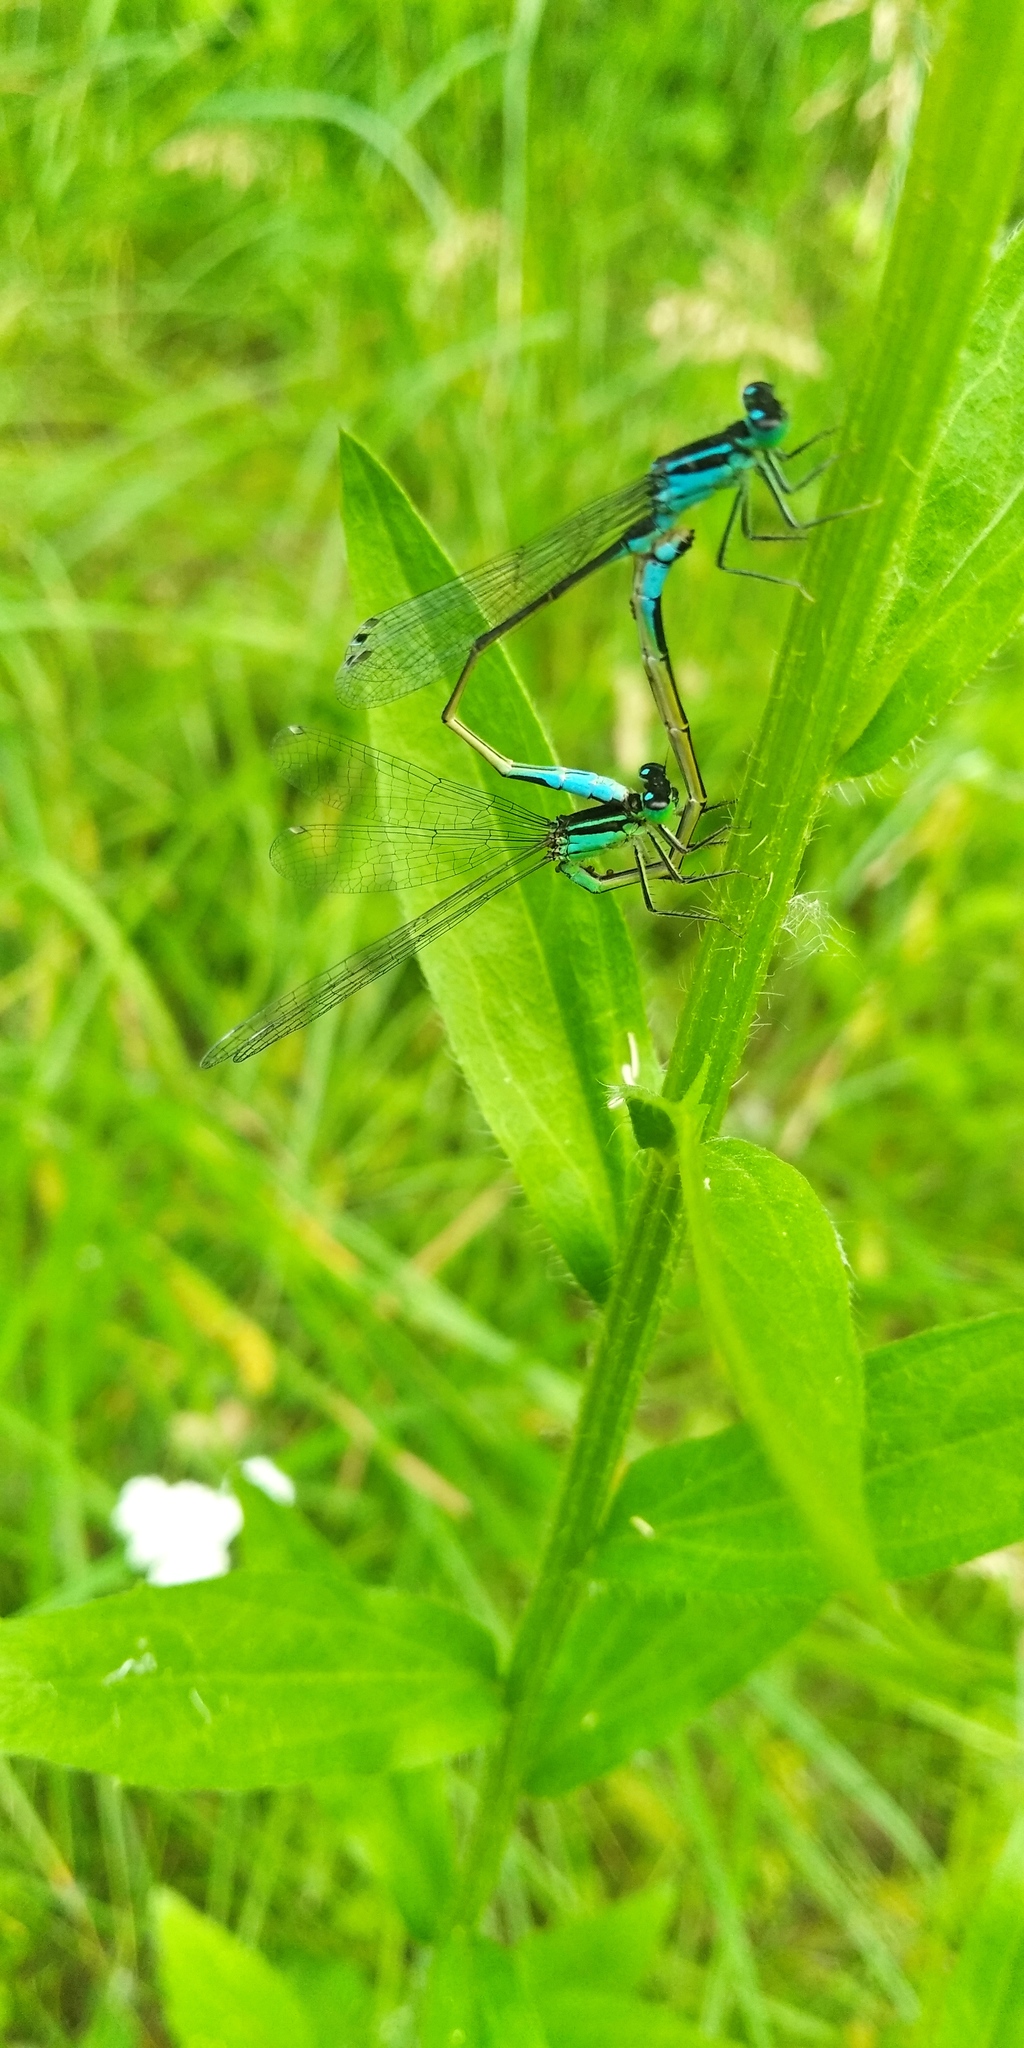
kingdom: Animalia
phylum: Arthropoda
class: Insecta
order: Odonata
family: Coenagrionidae
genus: Ischnura
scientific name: Ischnura elegans
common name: Blue-tailed damselfly
